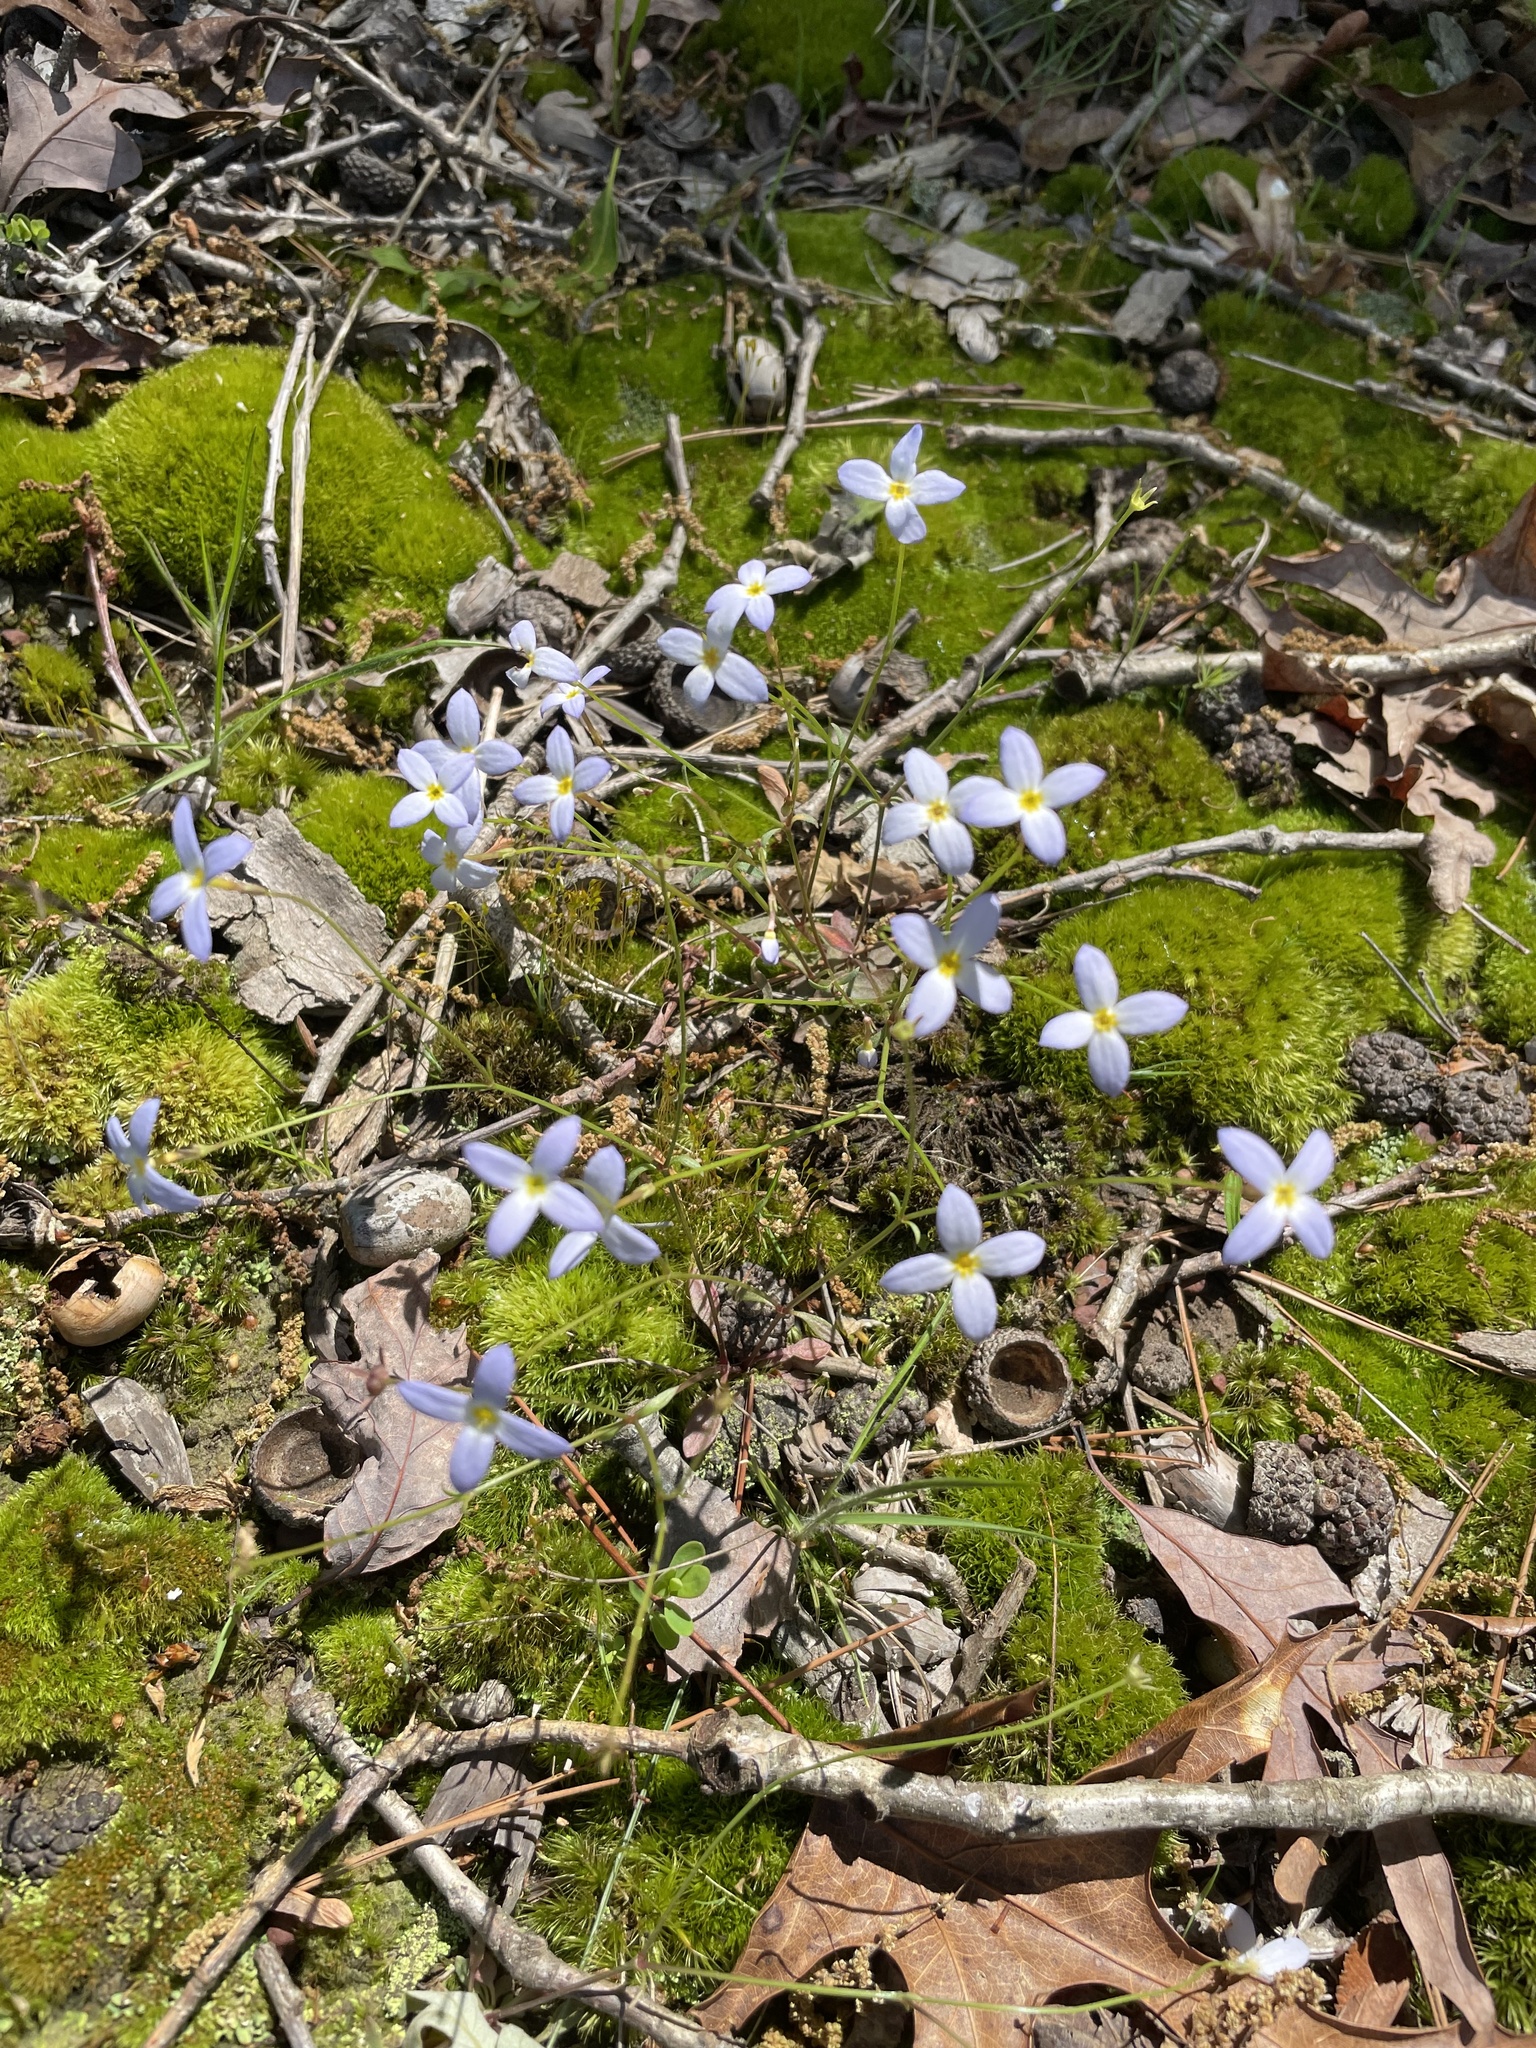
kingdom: Plantae
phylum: Tracheophyta
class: Magnoliopsida
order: Gentianales
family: Rubiaceae
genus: Houstonia
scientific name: Houstonia caerulea
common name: Bluets
